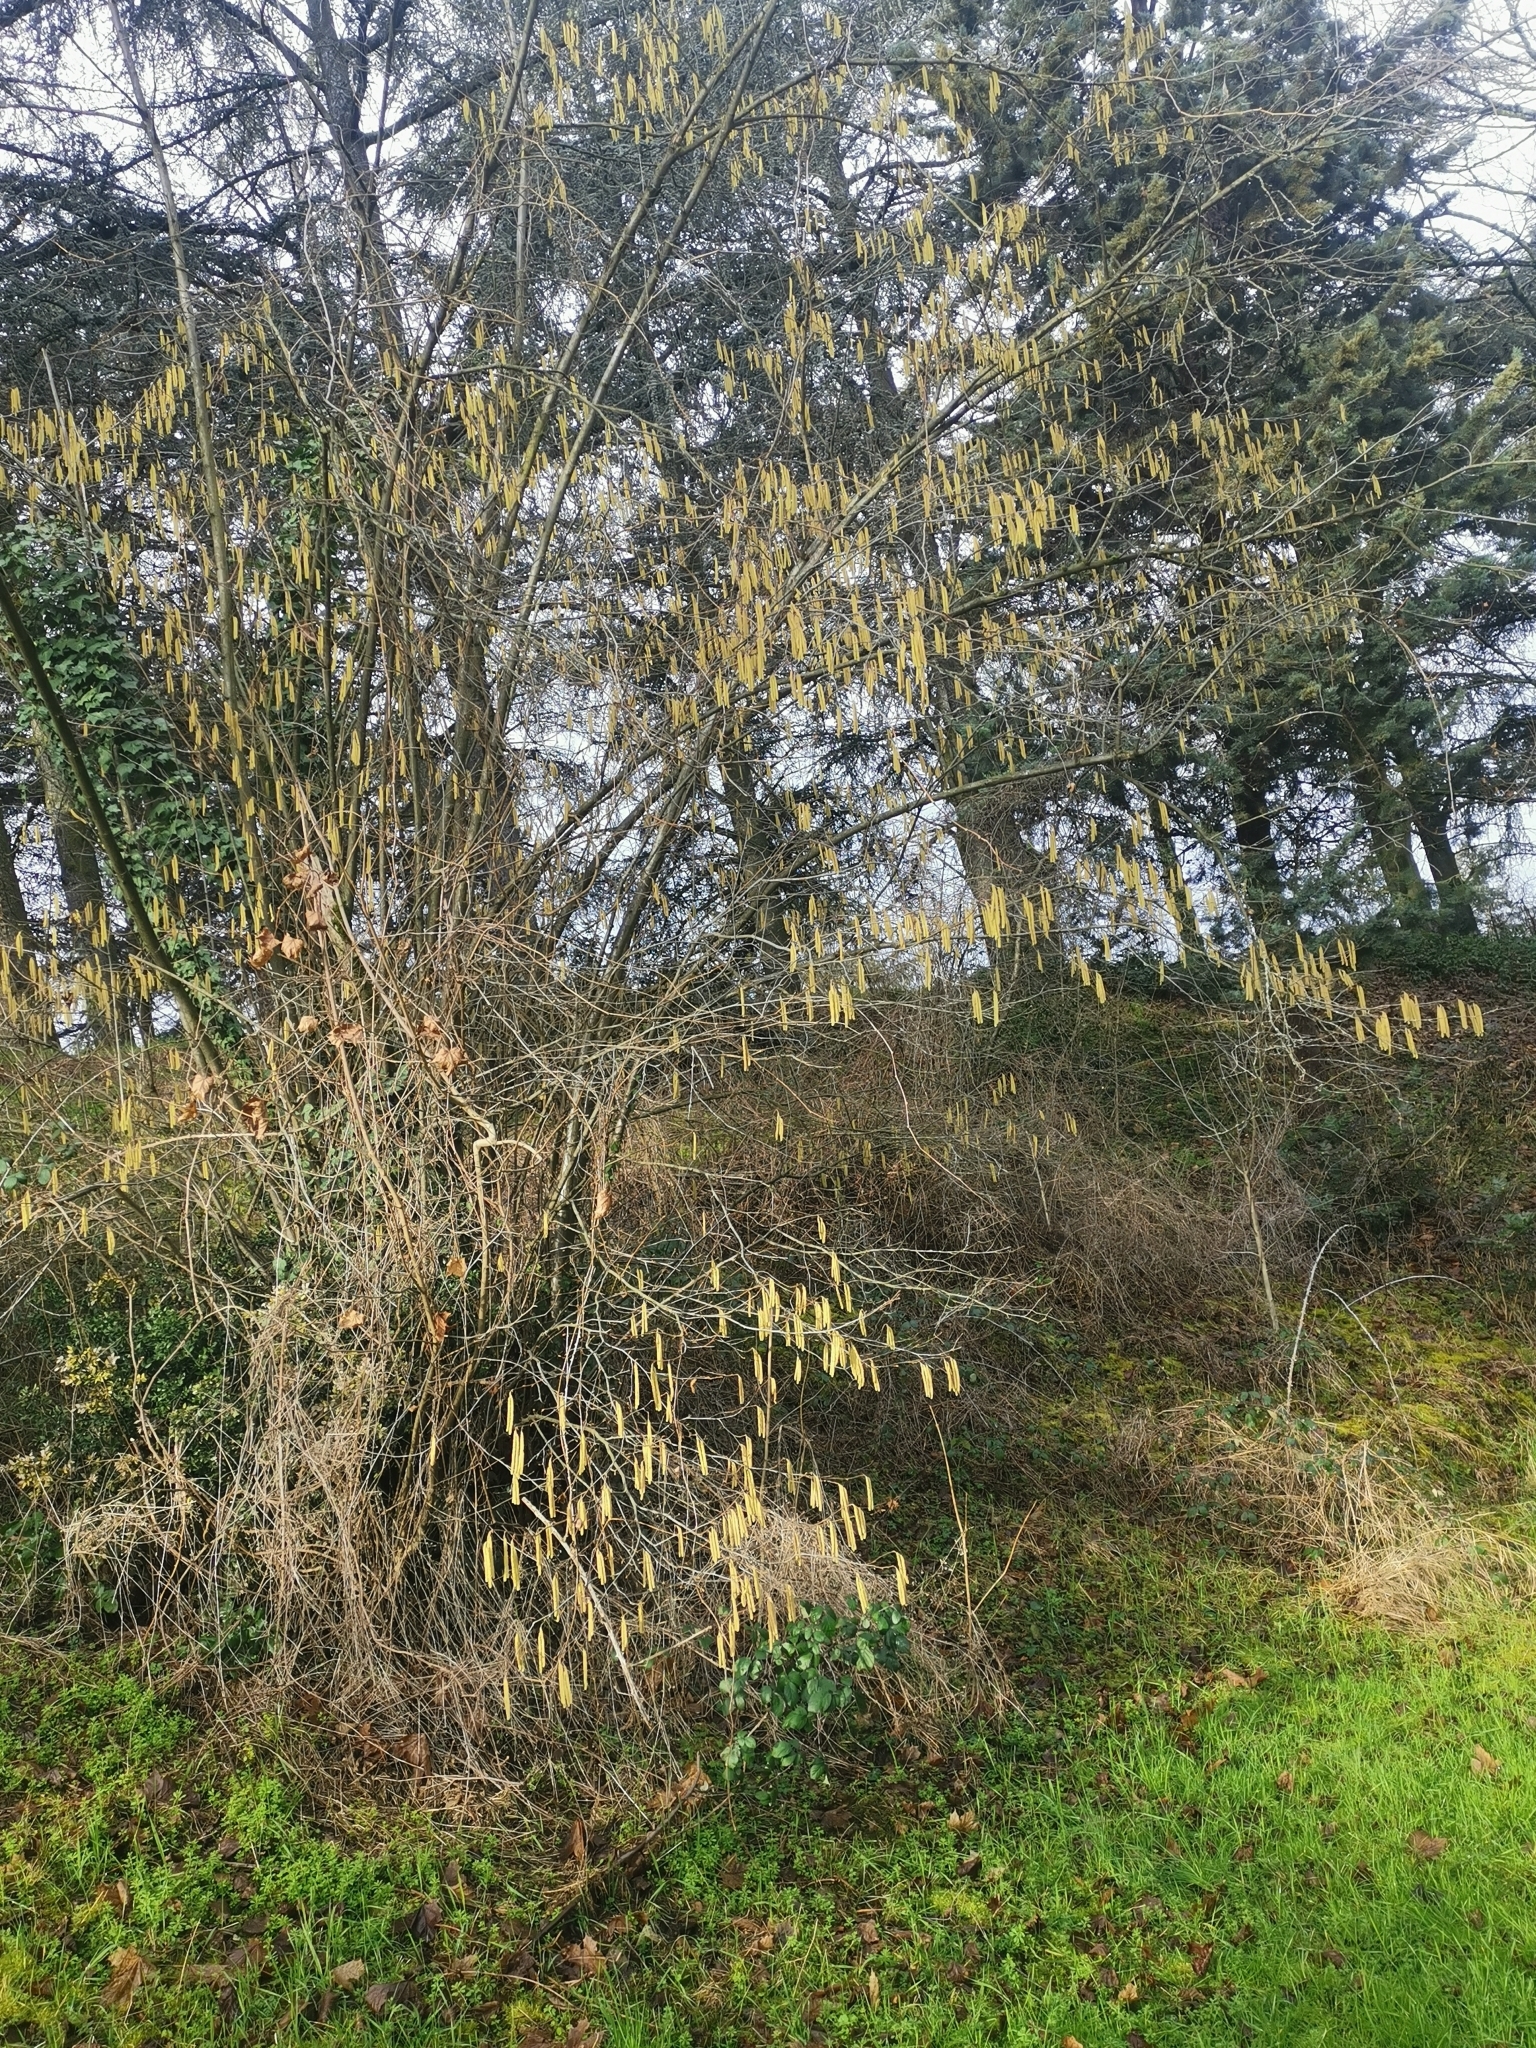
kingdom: Plantae
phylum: Tracheophyta
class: Magnoliopsida
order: Fagales
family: Betulaceae
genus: Corylus
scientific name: Corylus avellana
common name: European hazel
